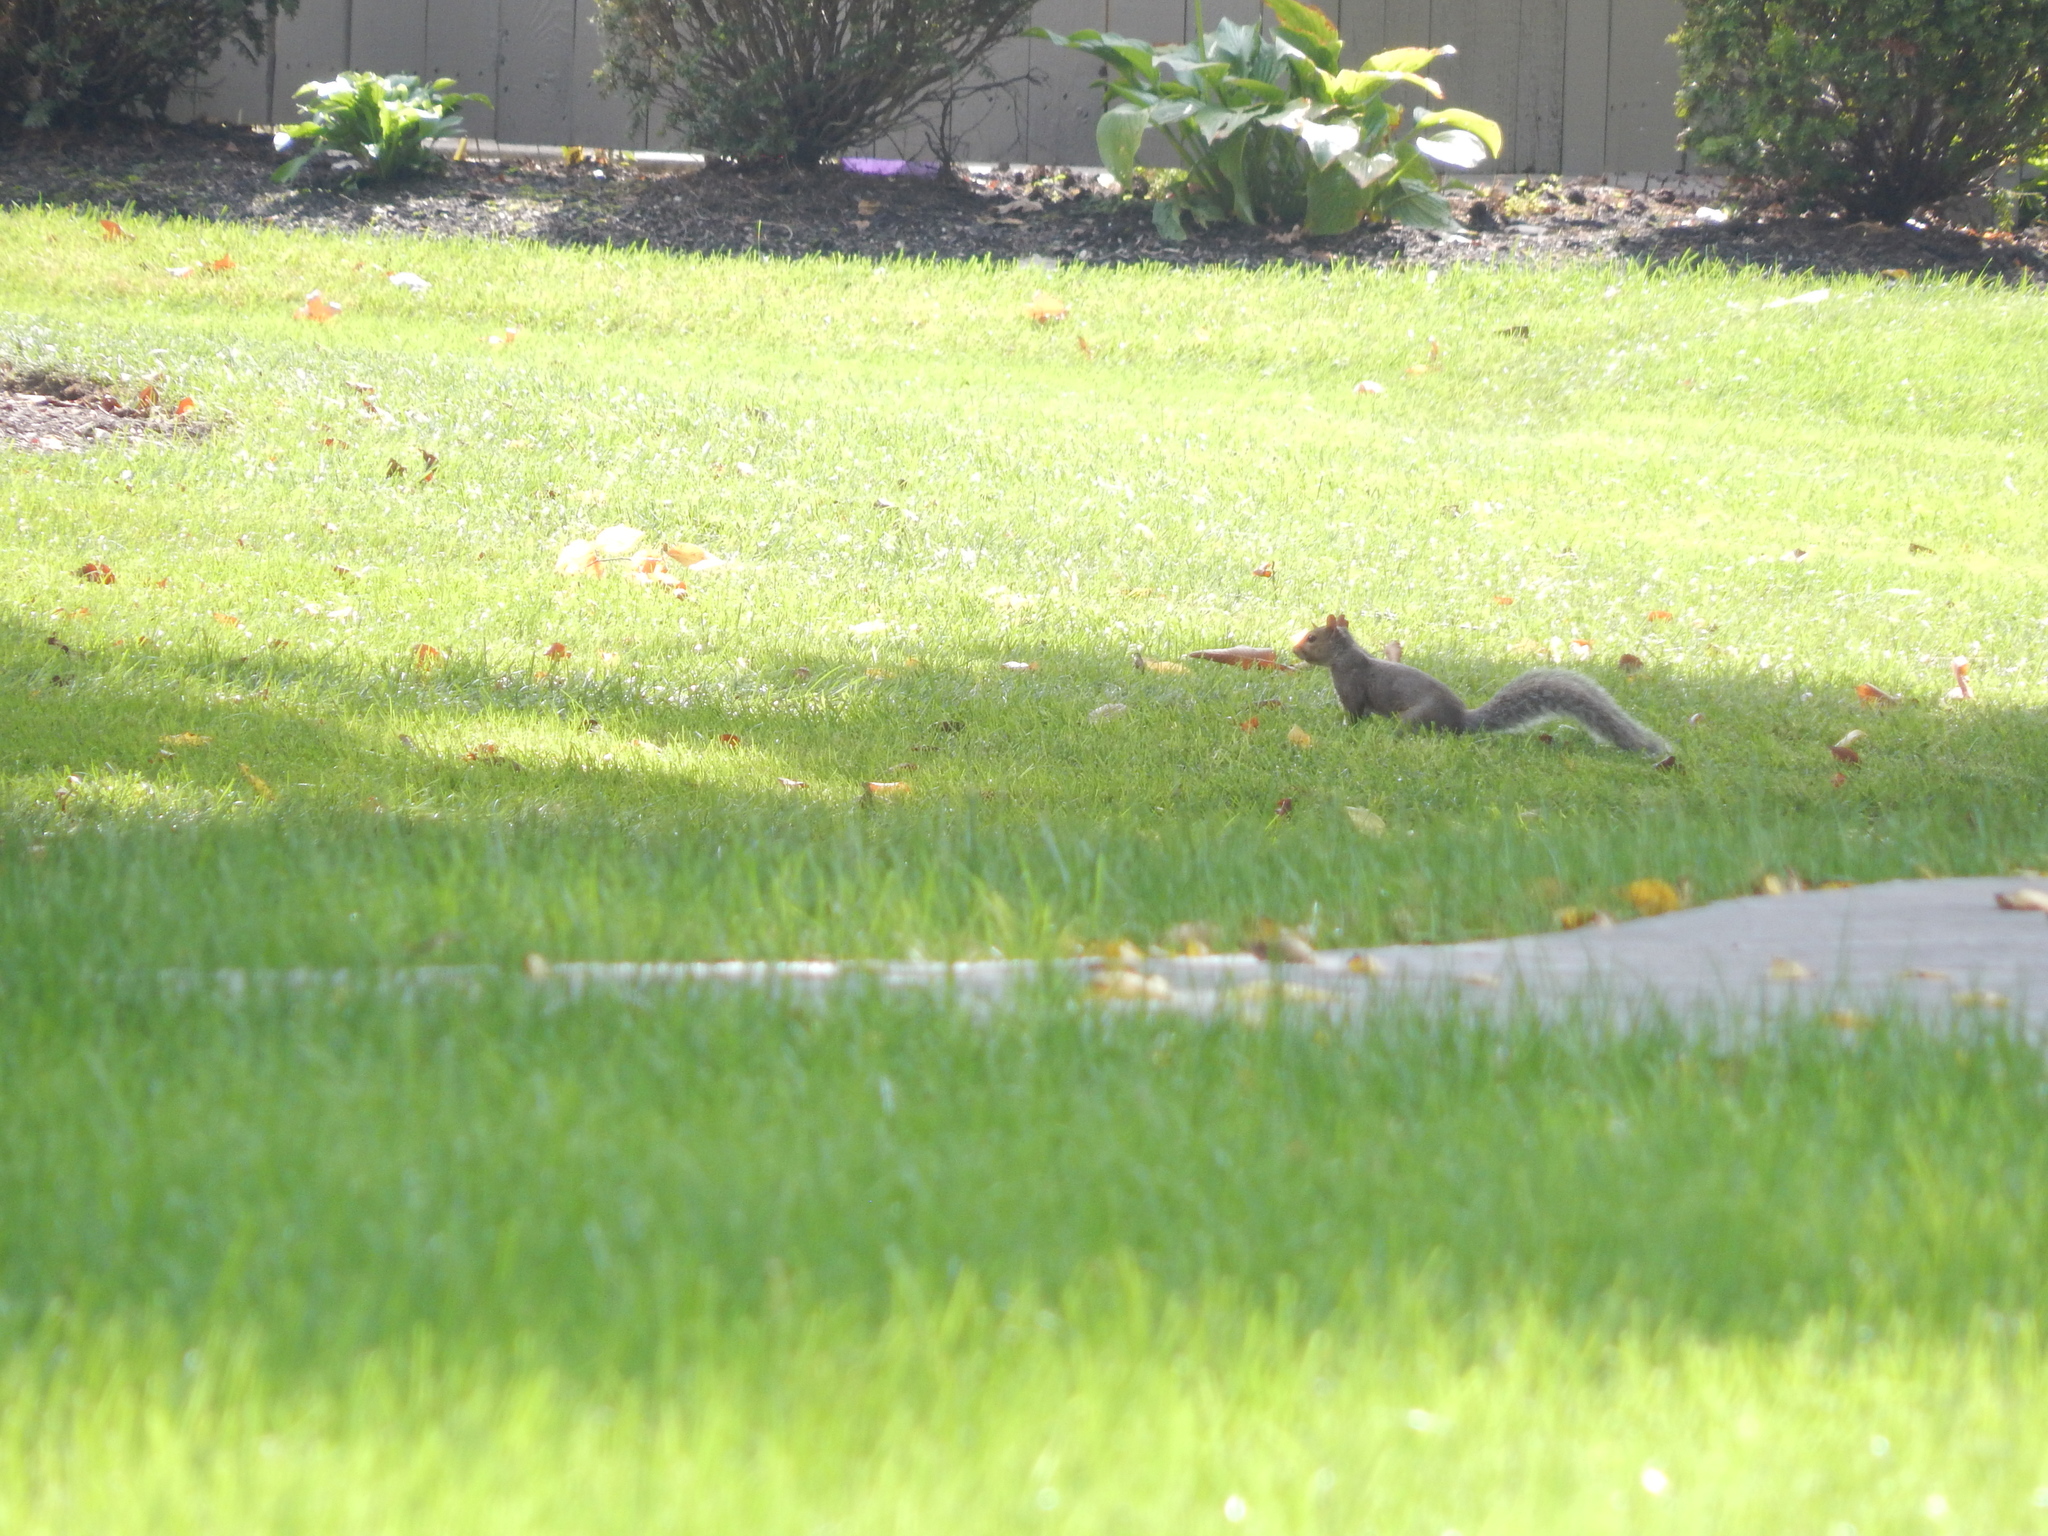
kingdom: Animalia
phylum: Chordata
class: Mammalia
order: Rodentia
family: Sciuridae
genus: Sciurus
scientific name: Sciurus carolinensis
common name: Eastern gray squirrel
